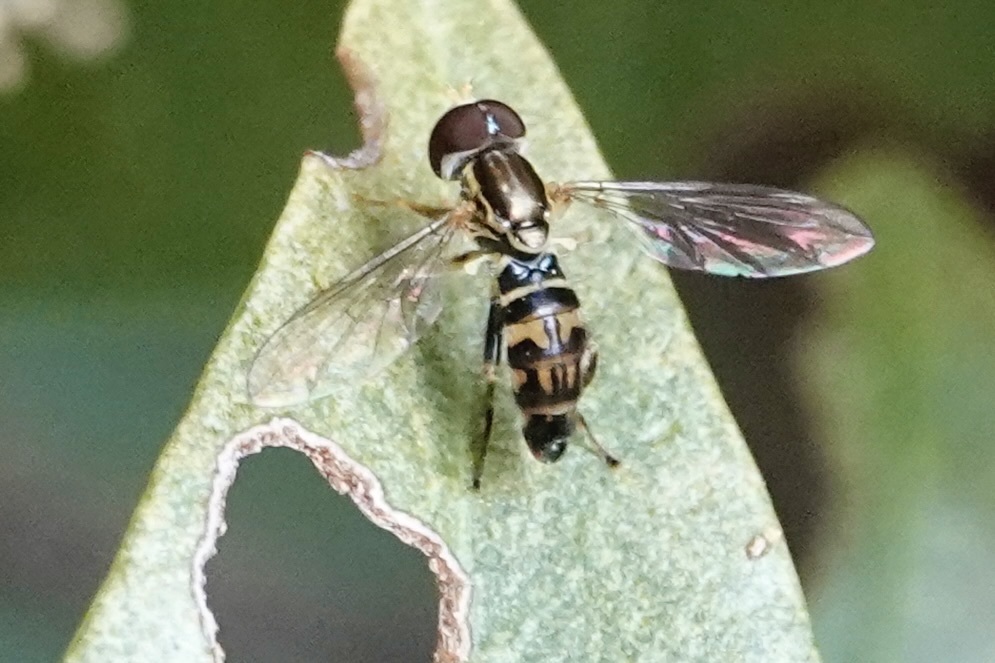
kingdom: Animalia
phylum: Arthropoda
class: Insecta
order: Diptera
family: Syrphidae
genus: Toxomerus
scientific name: Toxomerus geminatus
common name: Eastern calligrapher
